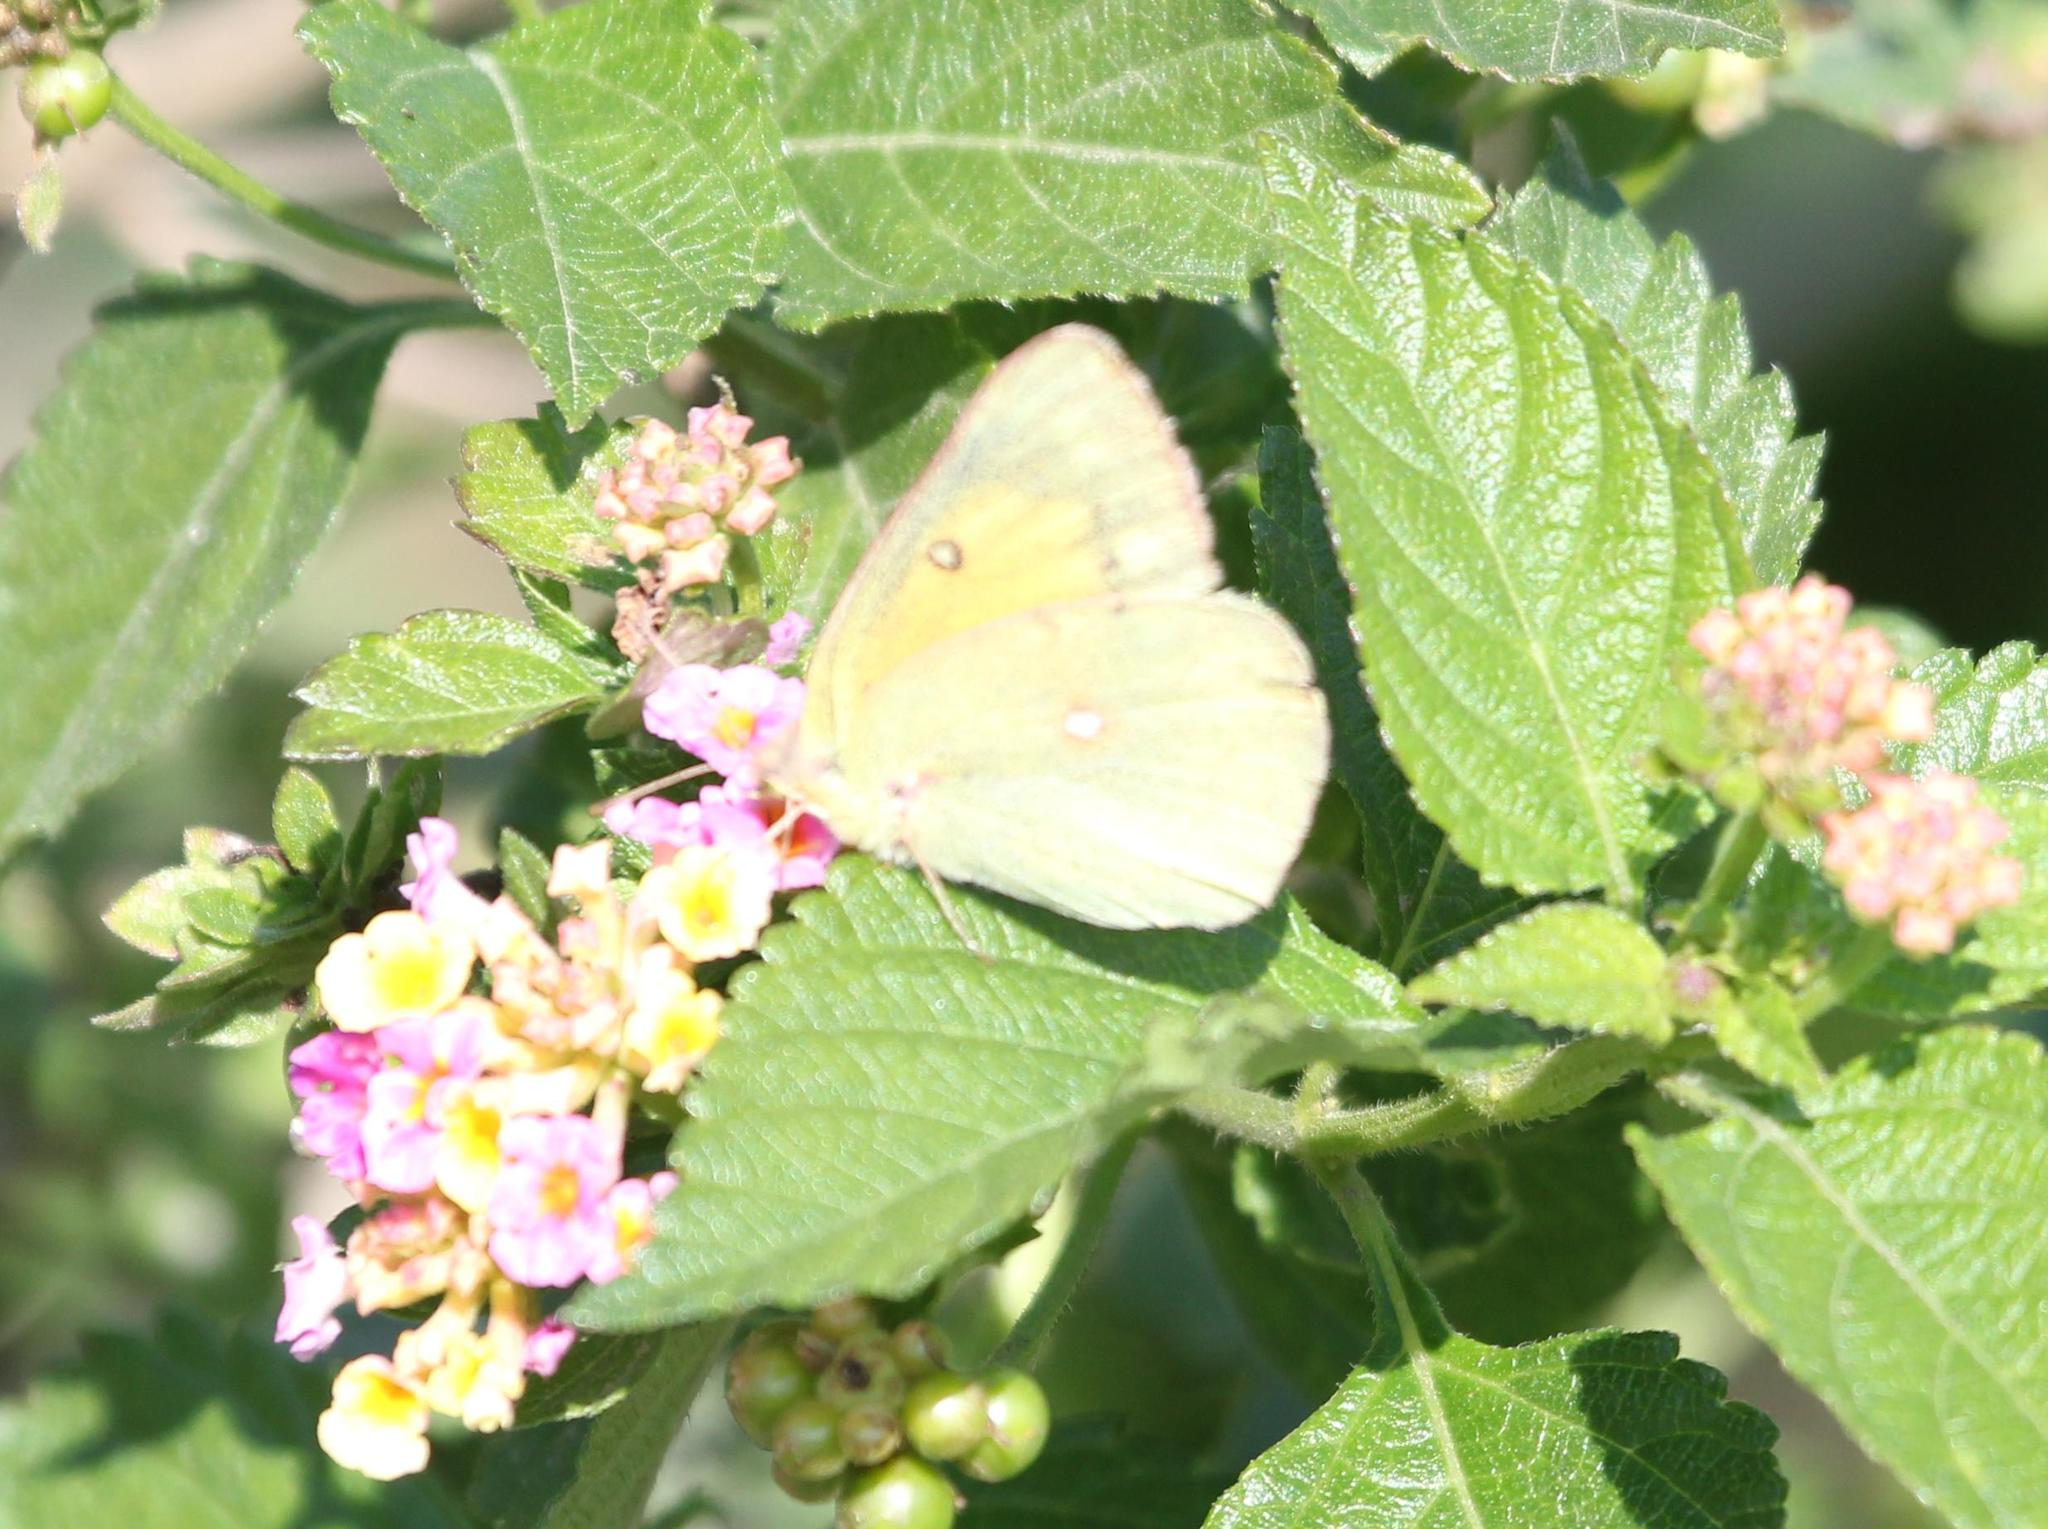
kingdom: Animalia
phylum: Arthropoda
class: Insecta
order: Lepidoptera
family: Pieridae
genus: Colias
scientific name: Colias eurytheme
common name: Alfalfa butterfly
